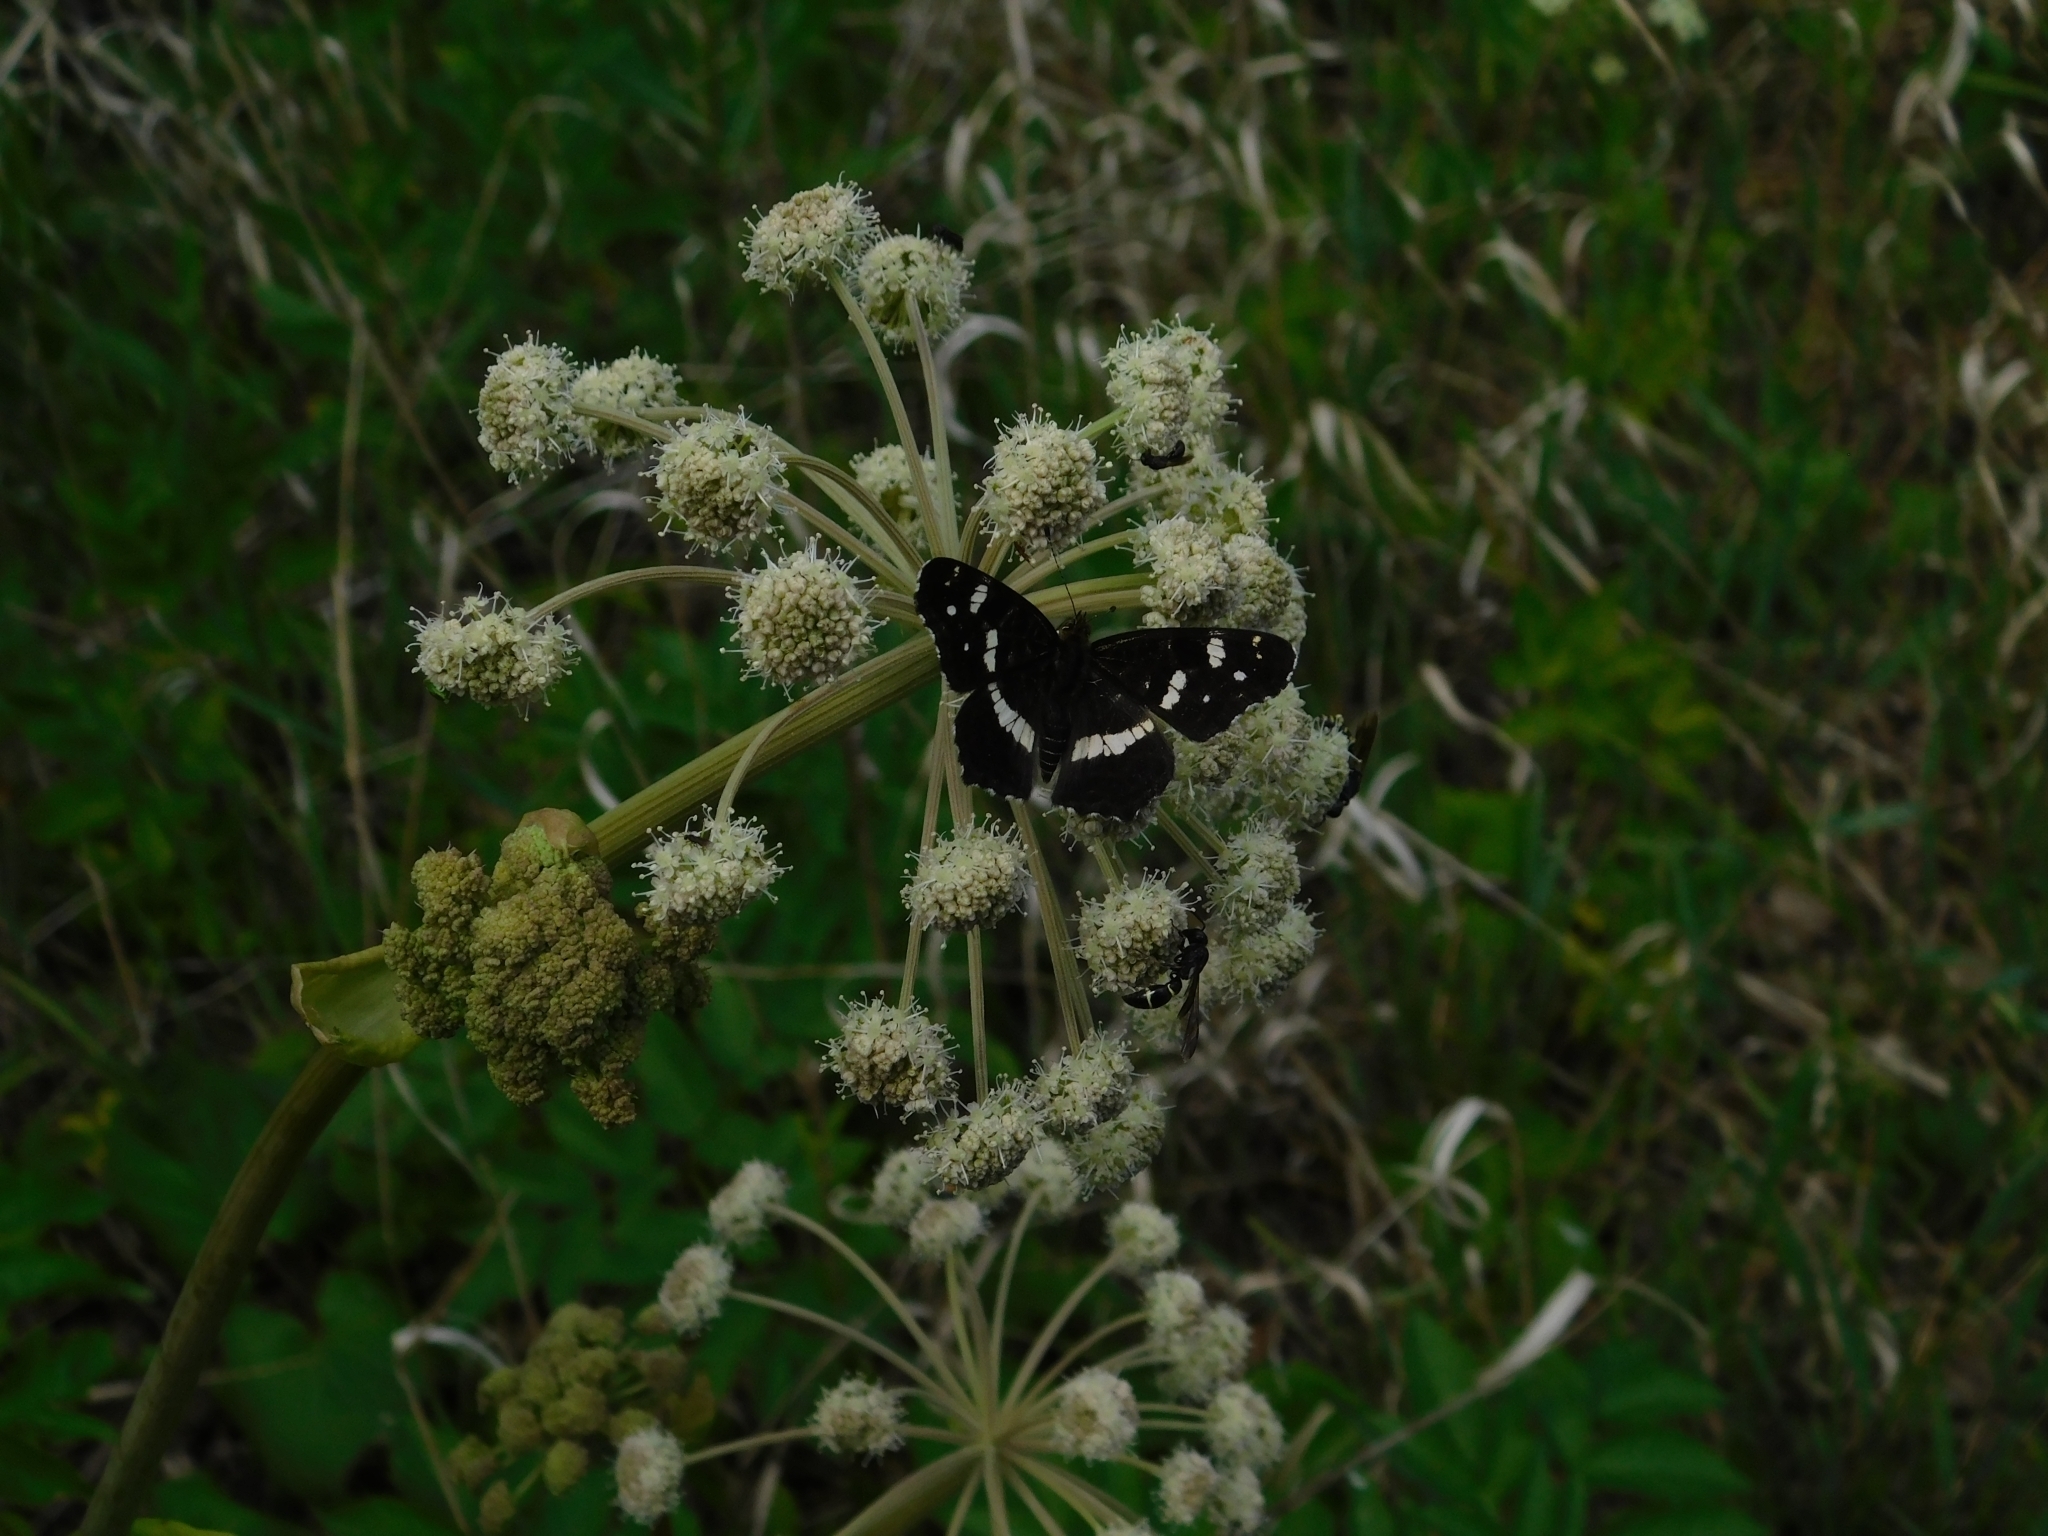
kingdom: Animalia
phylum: Arthropoda
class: Insecta
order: Lepidoptera
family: Nymphalidae
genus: Araschnia
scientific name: Araschnia levana
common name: Map butterfly
